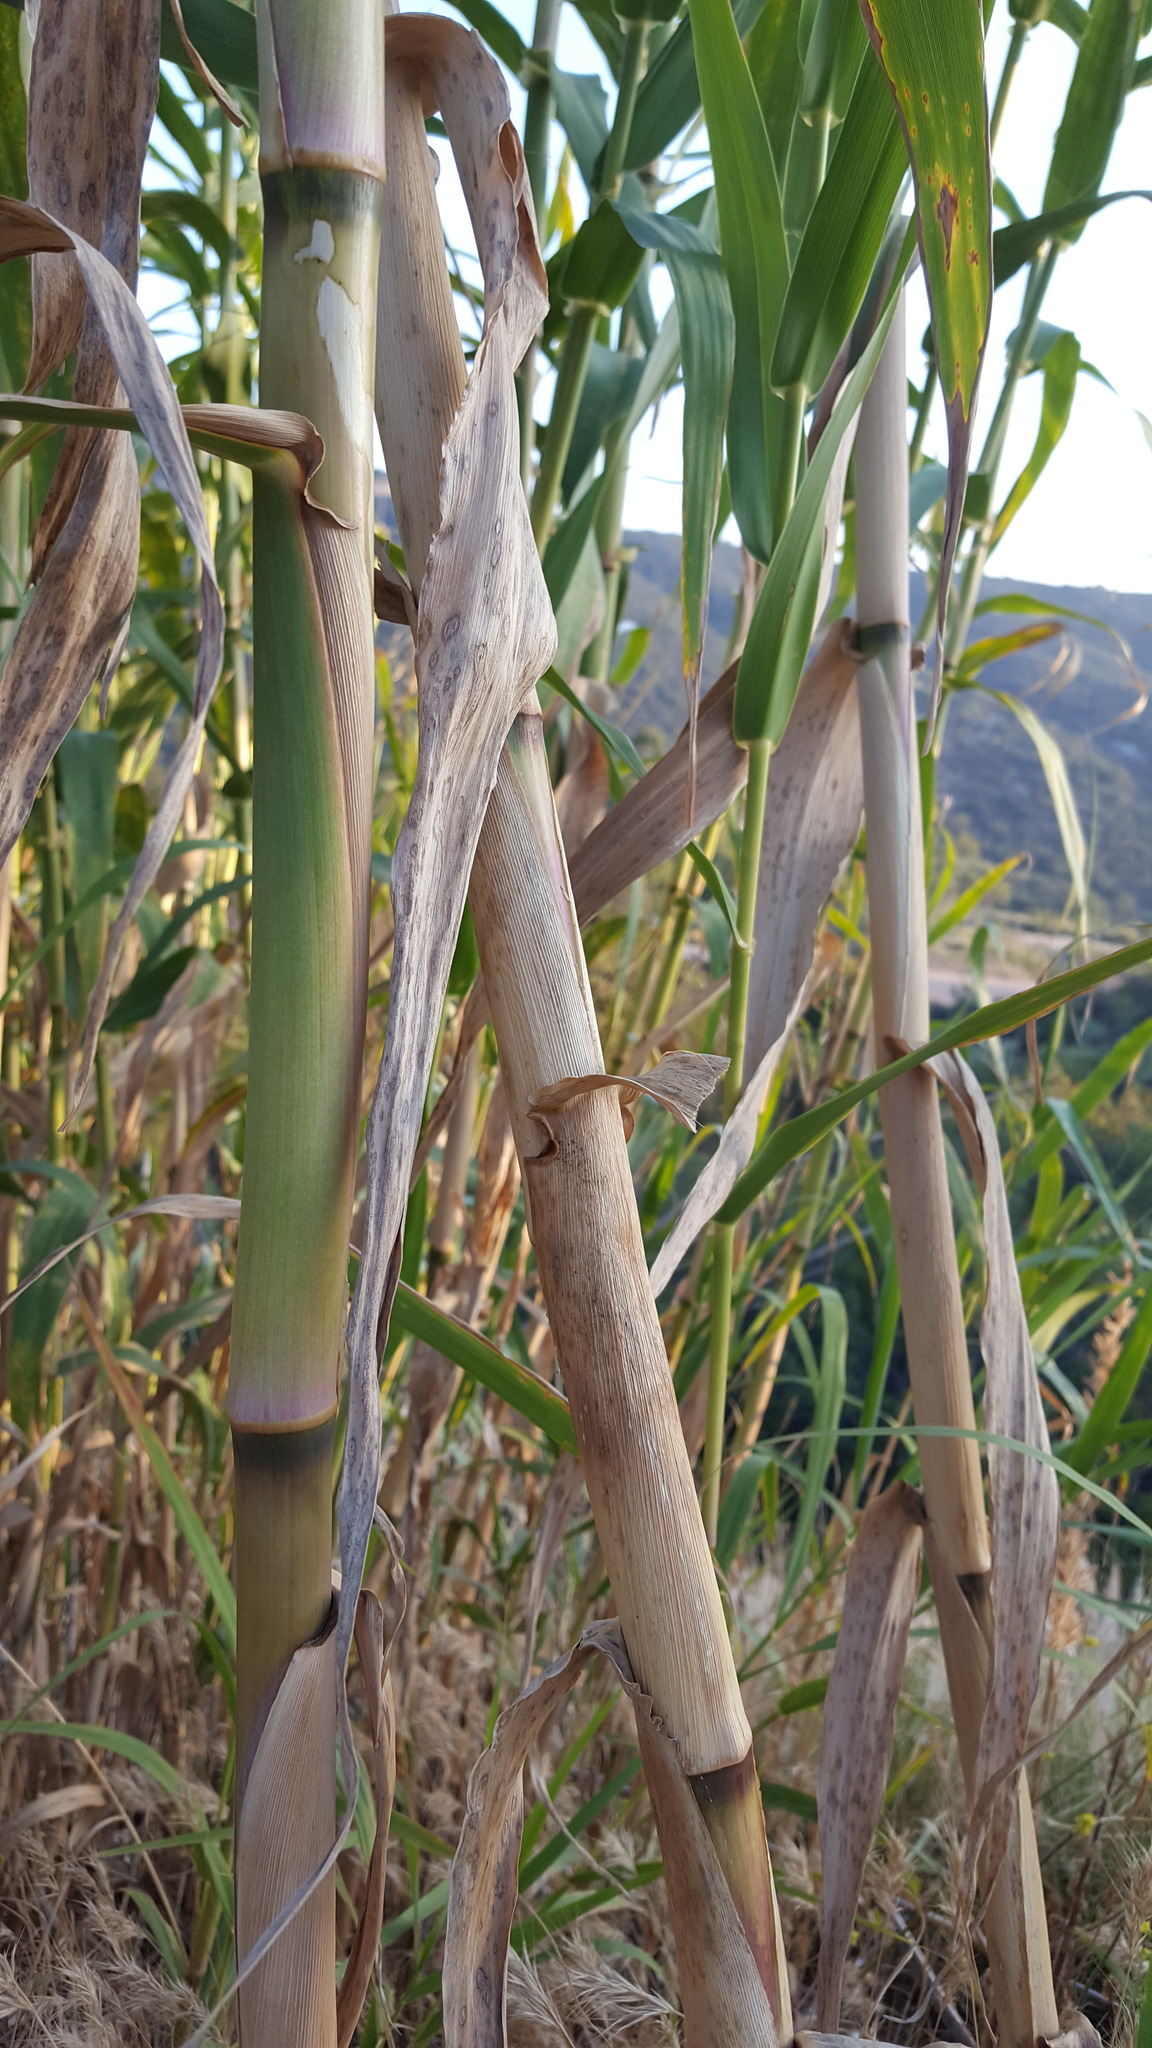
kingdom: Plantae
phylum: Tracheophyta
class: Liliopsida
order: Poales
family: Poaceae
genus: Arundo
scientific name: Arundo donax
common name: Giant reed
